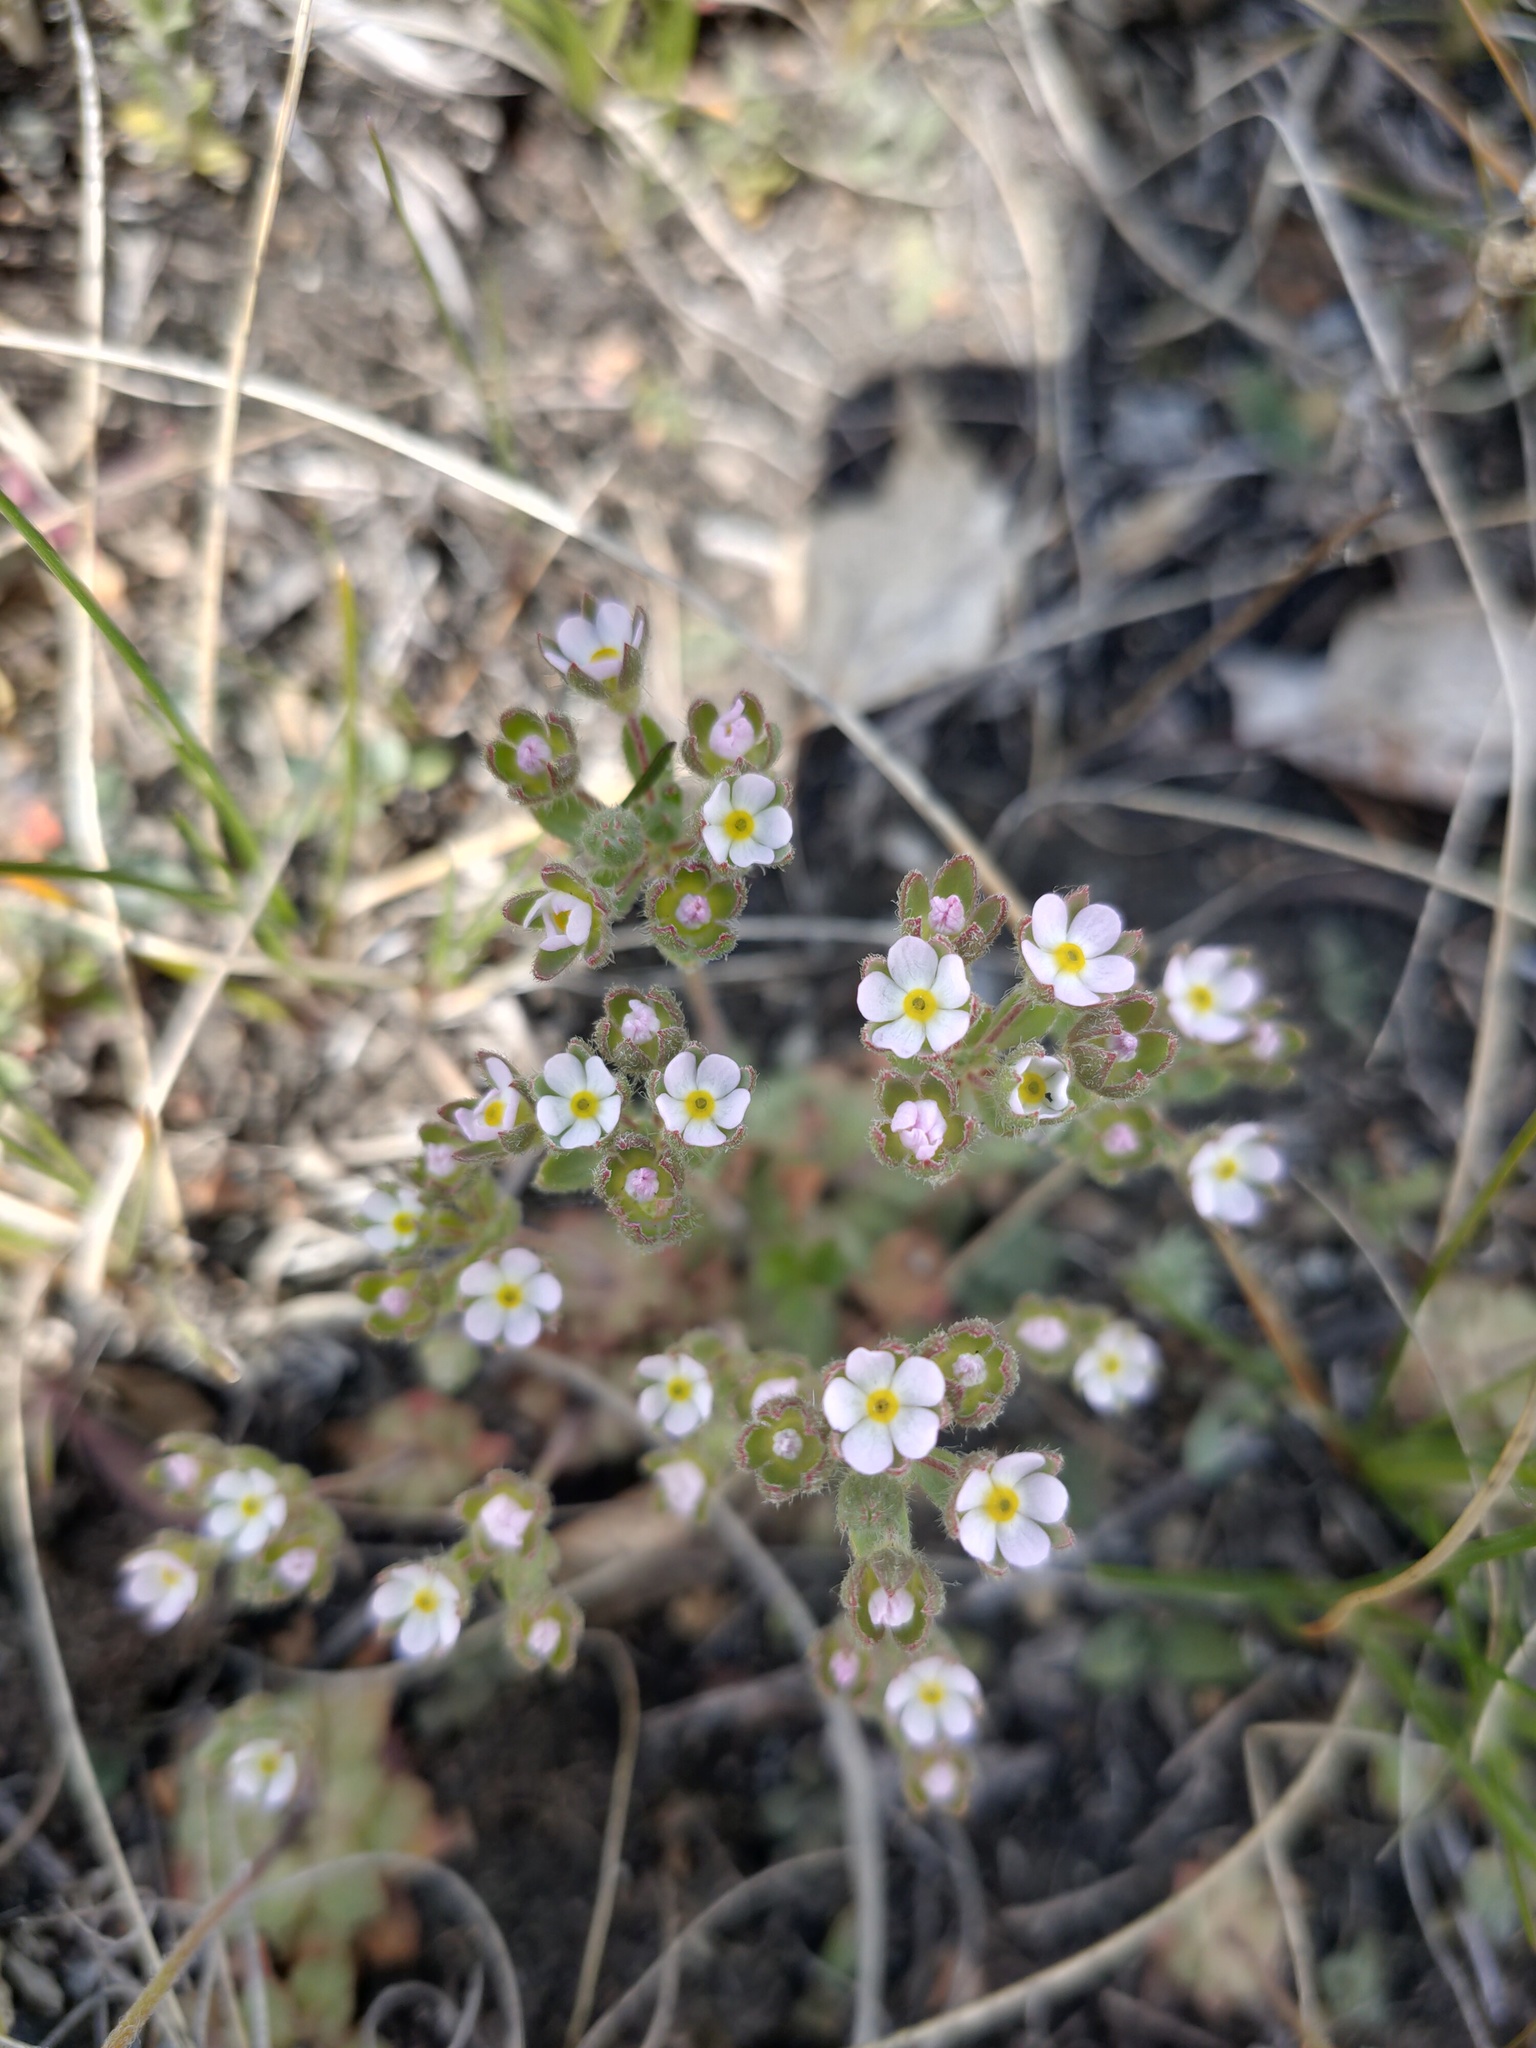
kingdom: Plantae
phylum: Tracheophyta
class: Magnoliopsida
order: Ericales
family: Primulaceae
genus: Androsace
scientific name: Androsace maxima
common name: Annual androsace
